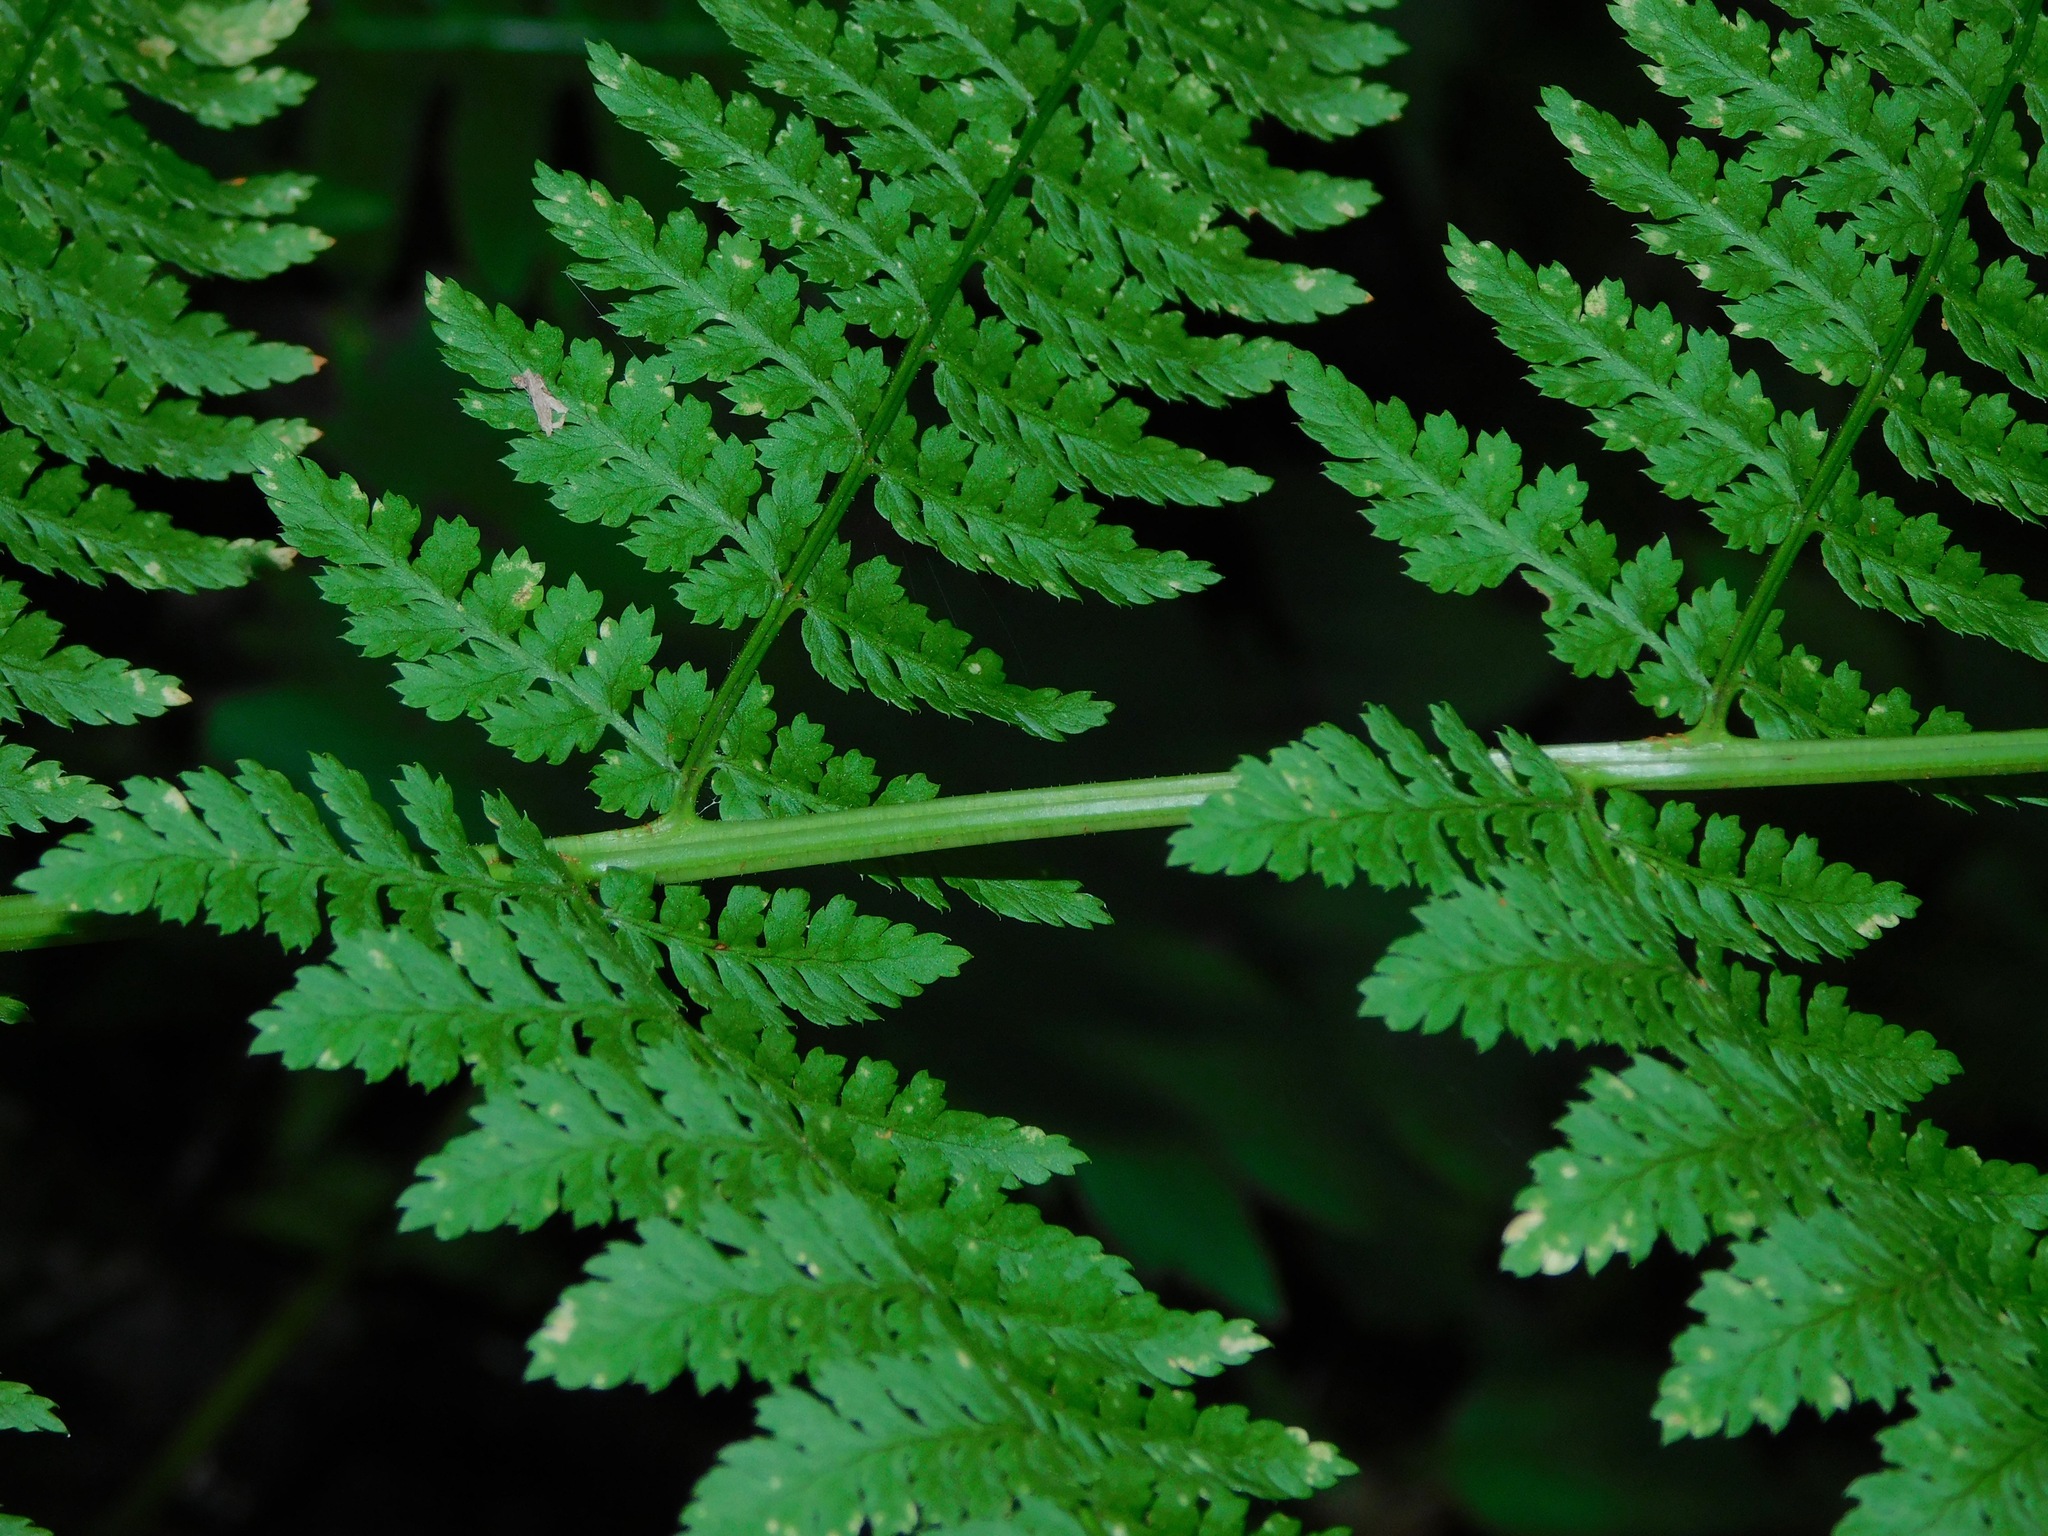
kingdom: Plantae
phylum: Tracheophyta
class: Polypodiopsida
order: Polypodiales
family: Dryopteridaceae
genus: Dryopteris
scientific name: Dryopteris intermedia
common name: Evergreen wood fern
